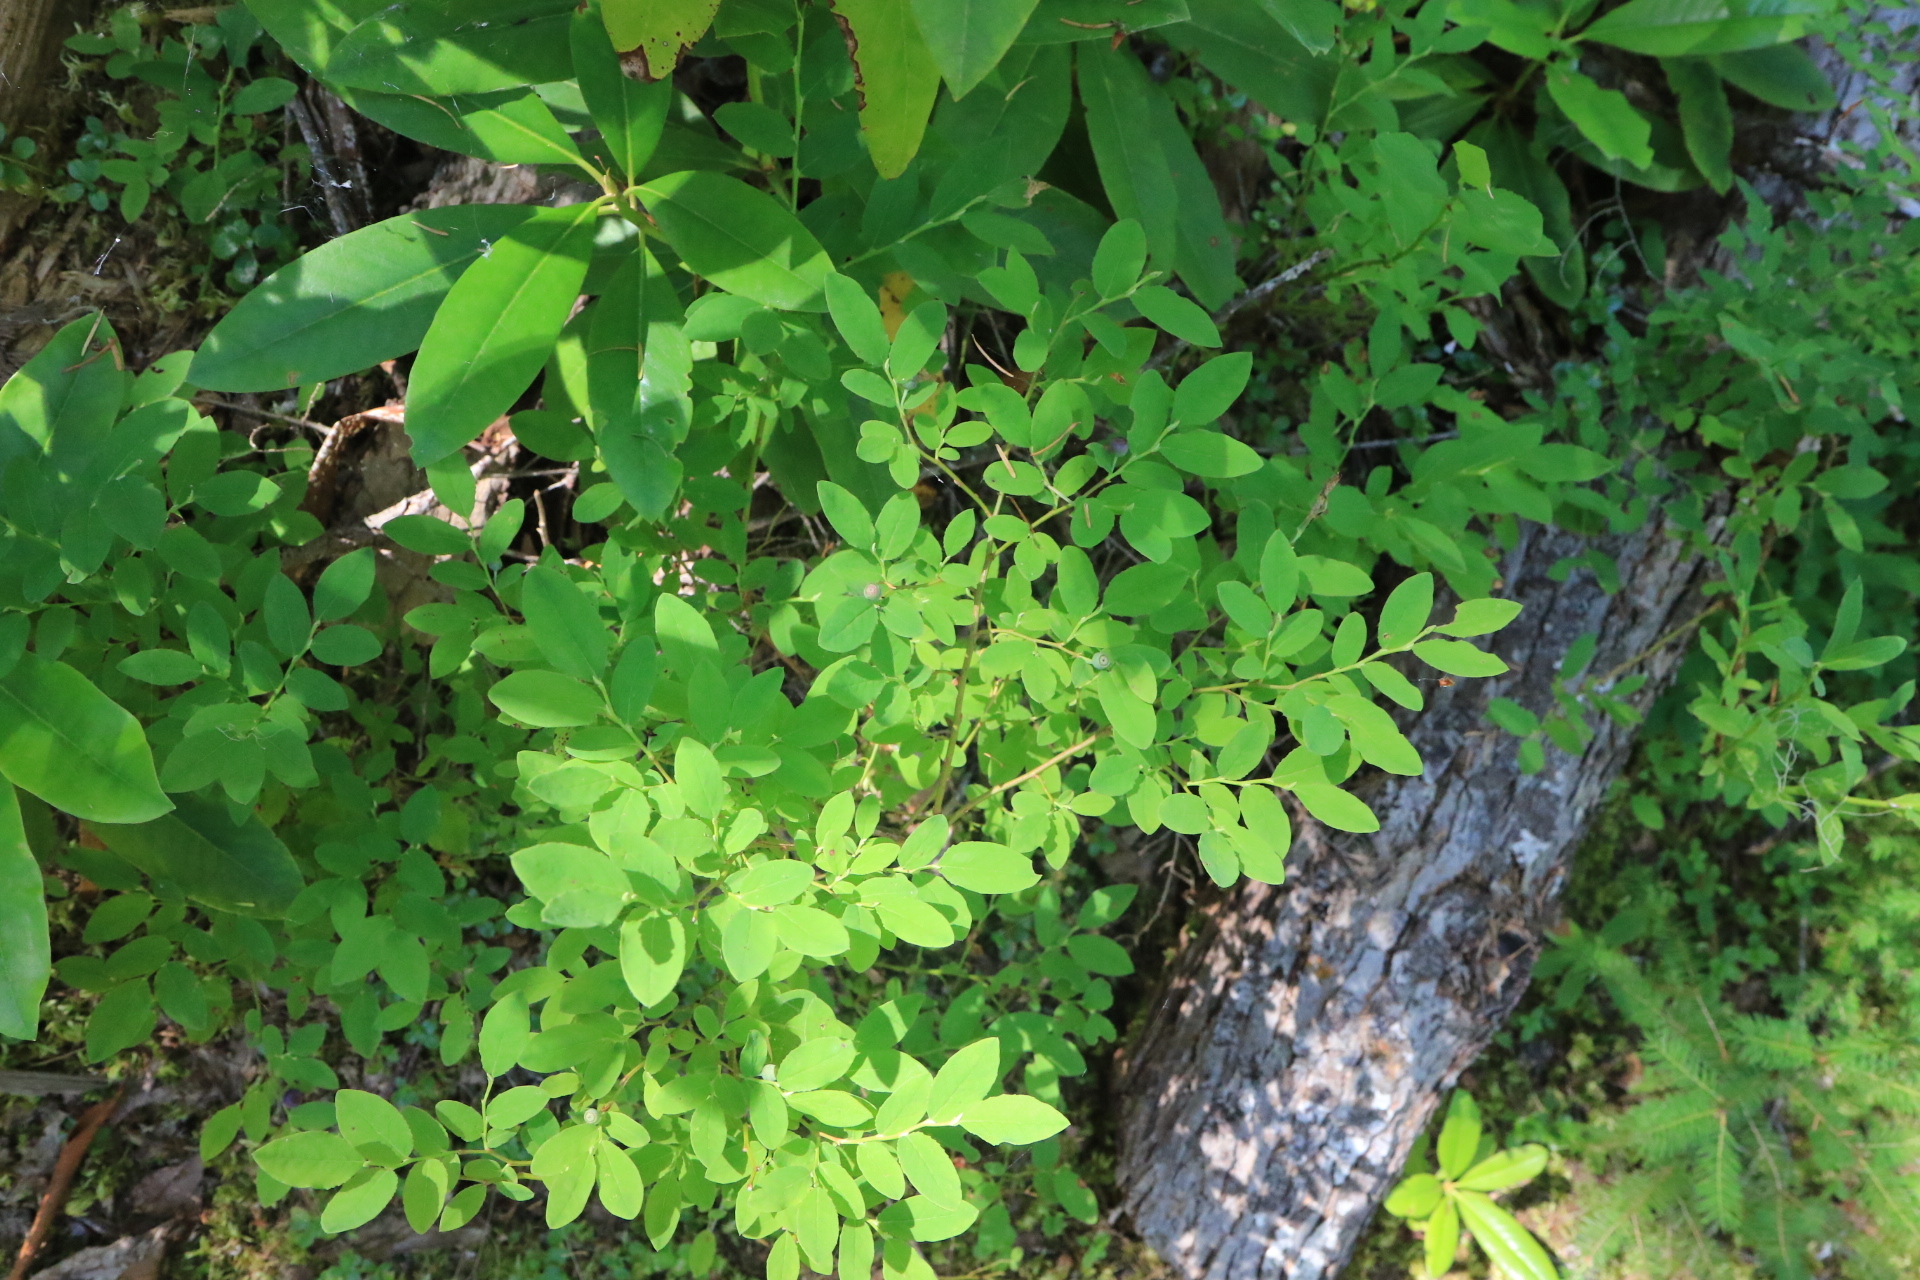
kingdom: Plantae
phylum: Tracheophyta
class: Magnoliopsida
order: Ericales
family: Ericaceae
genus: Vaccinium
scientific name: Vaccinium ovalifolium
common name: Early blueberry
